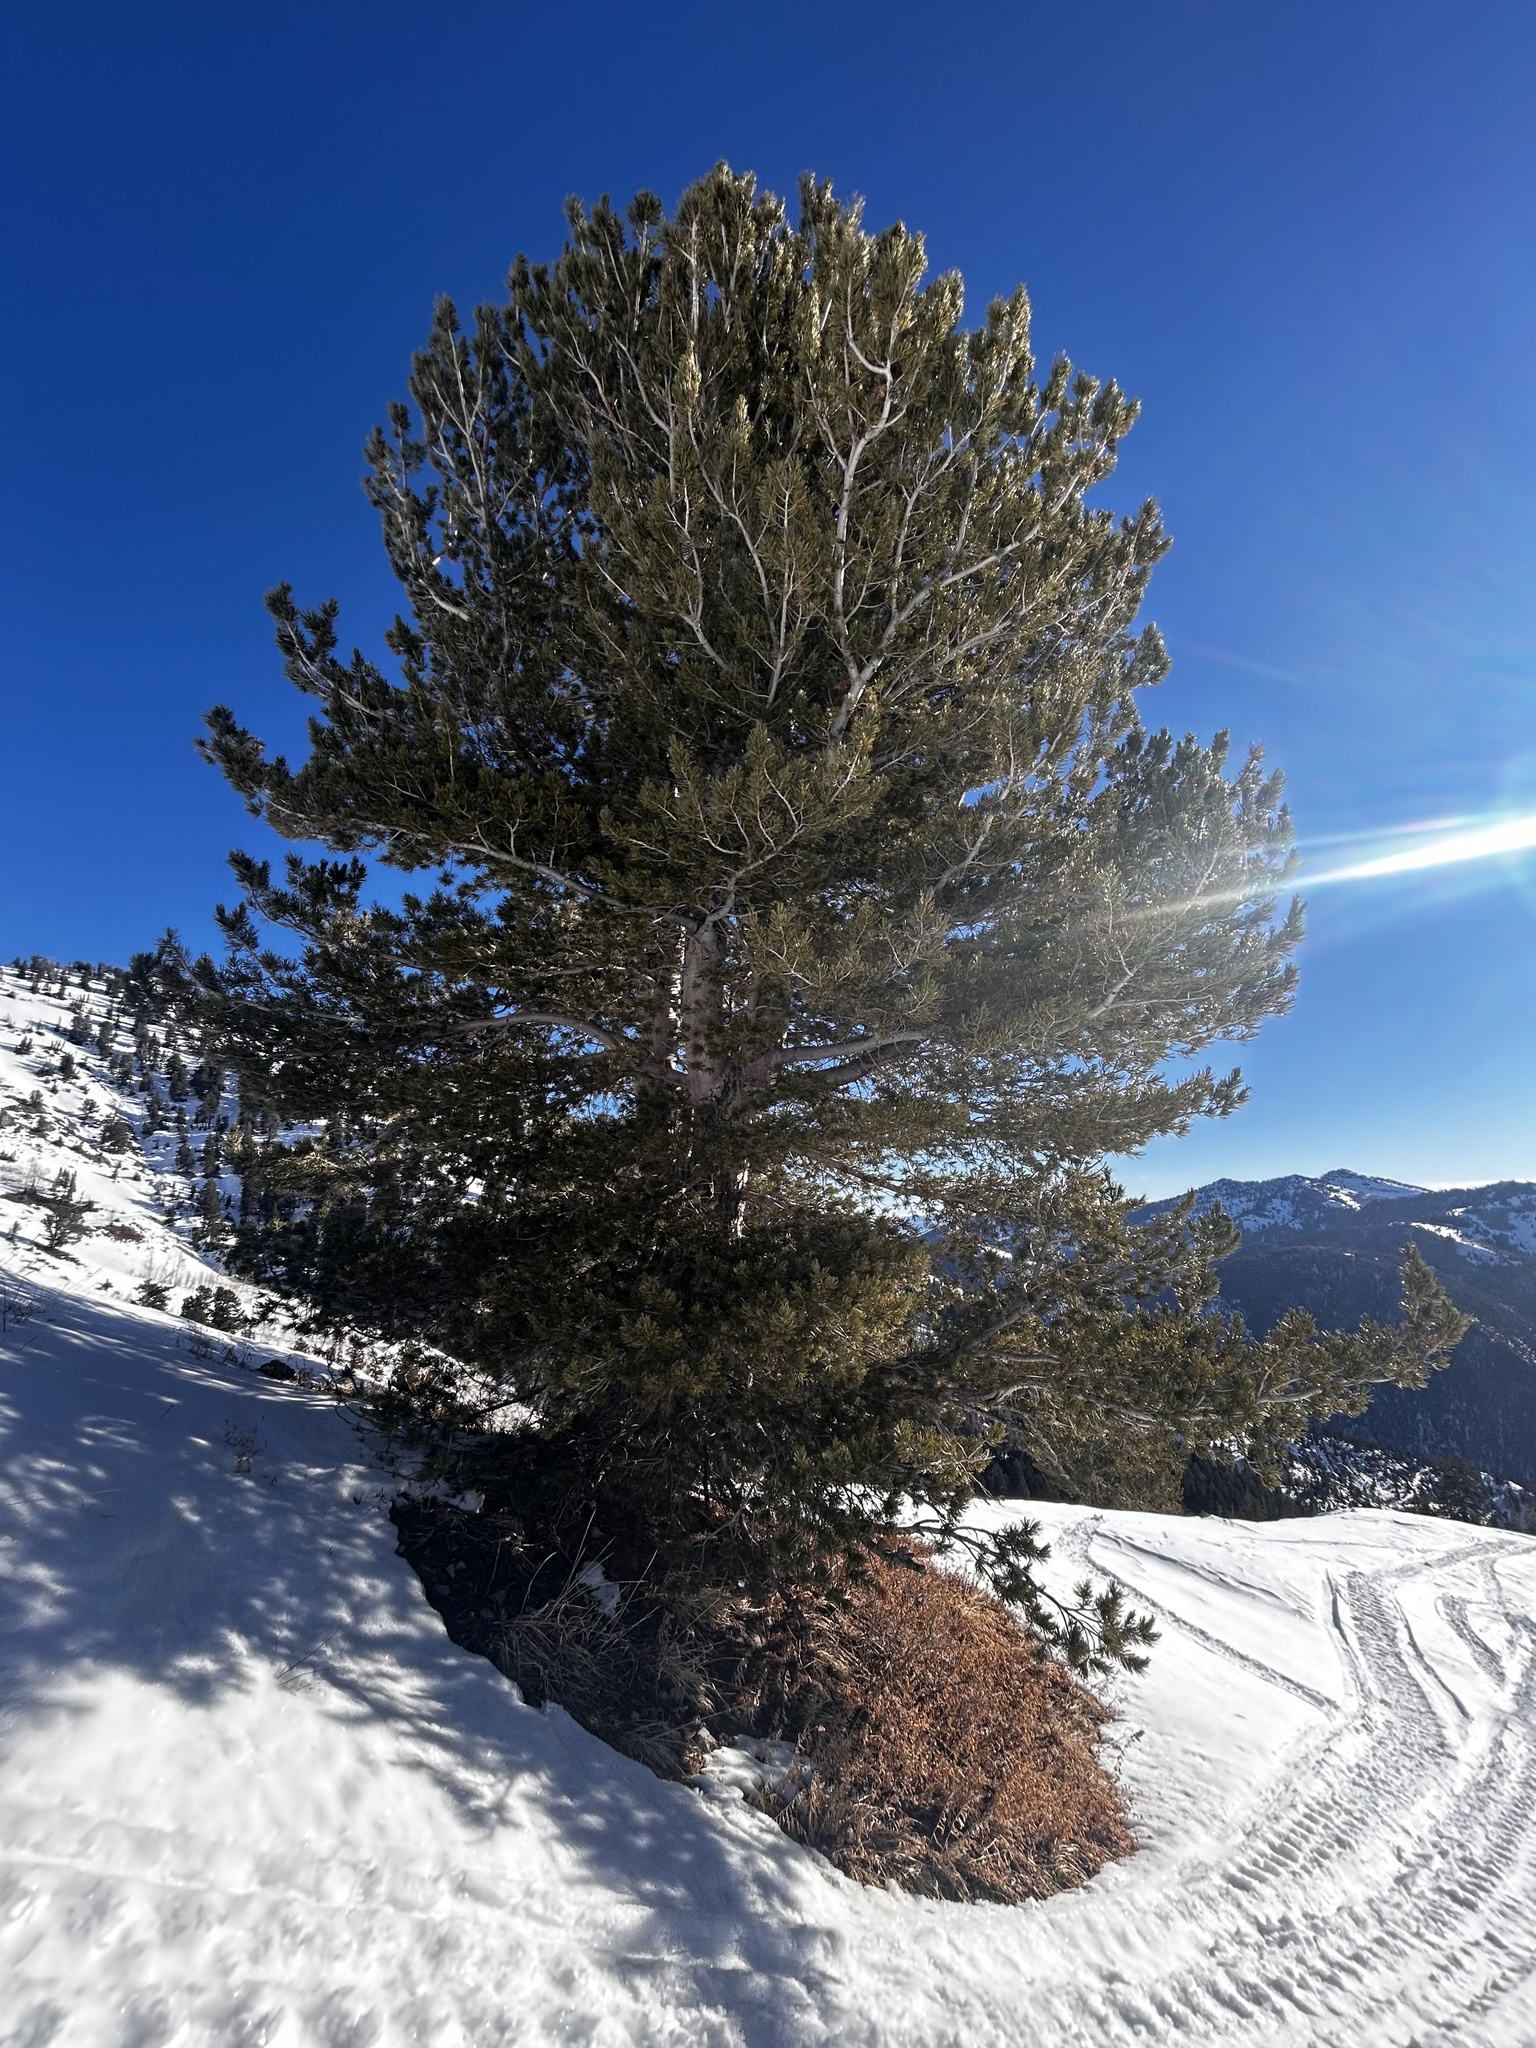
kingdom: Plantae
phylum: Tracheophyta
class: Pinopsida
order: Pinales
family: Pinaceae
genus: Pinus
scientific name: Pinus flexilis
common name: Limber pine
